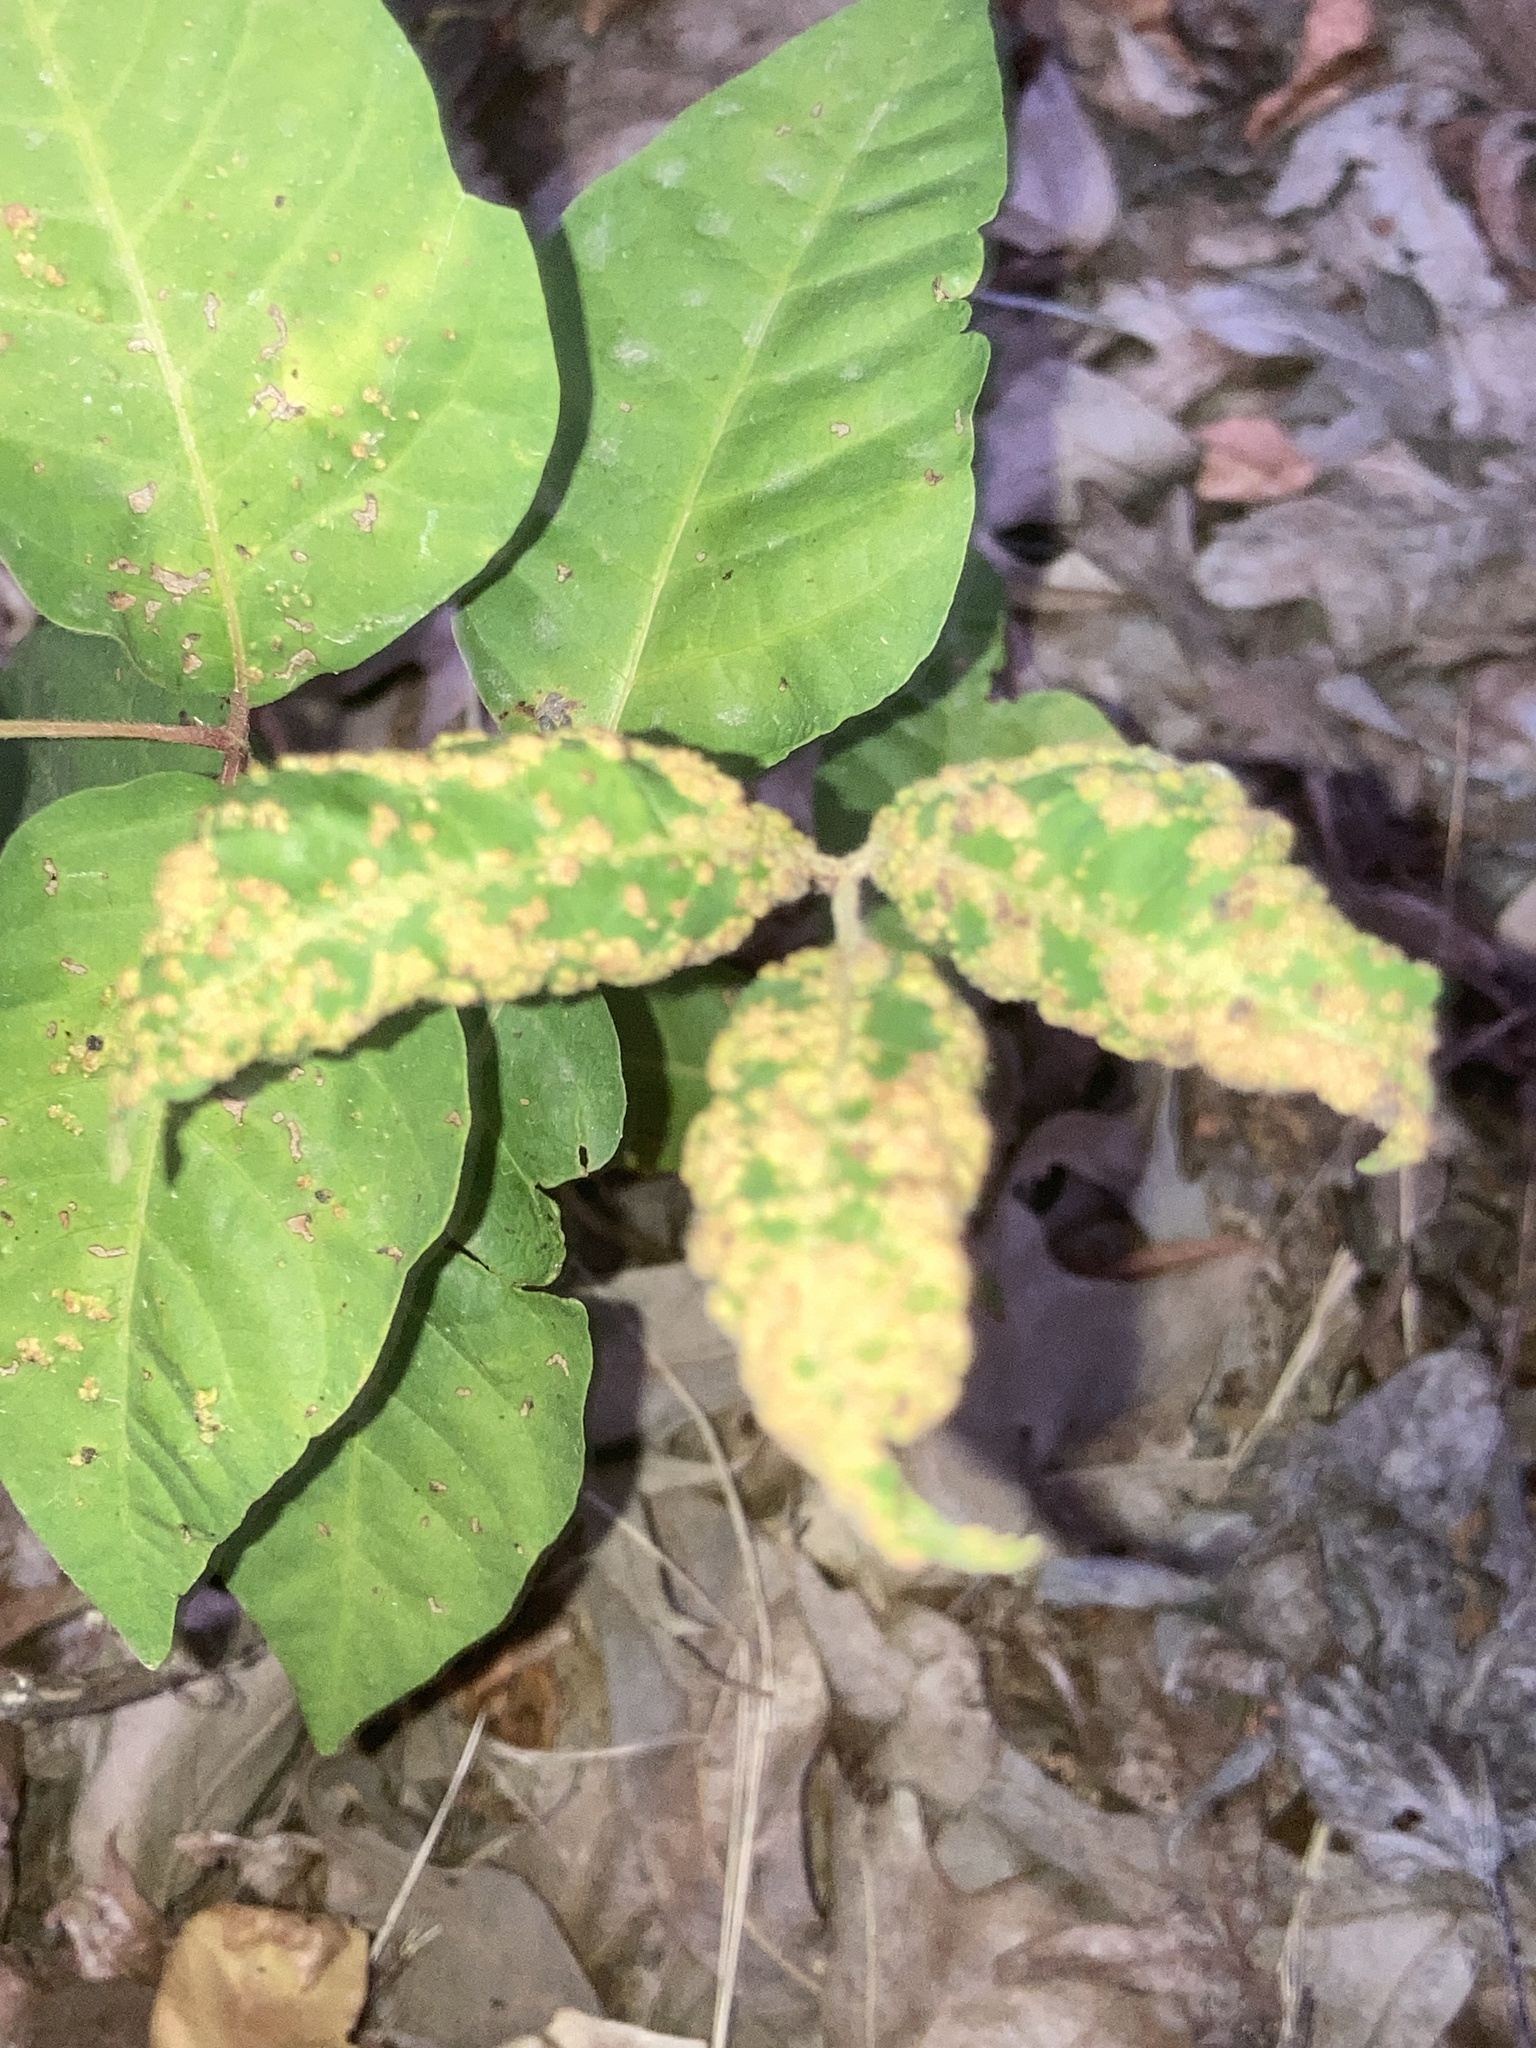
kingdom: Animalia
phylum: Arthropoda
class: Arachnida
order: Trombidiformes
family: Eriophyidae
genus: Aculops
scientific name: Aculops
